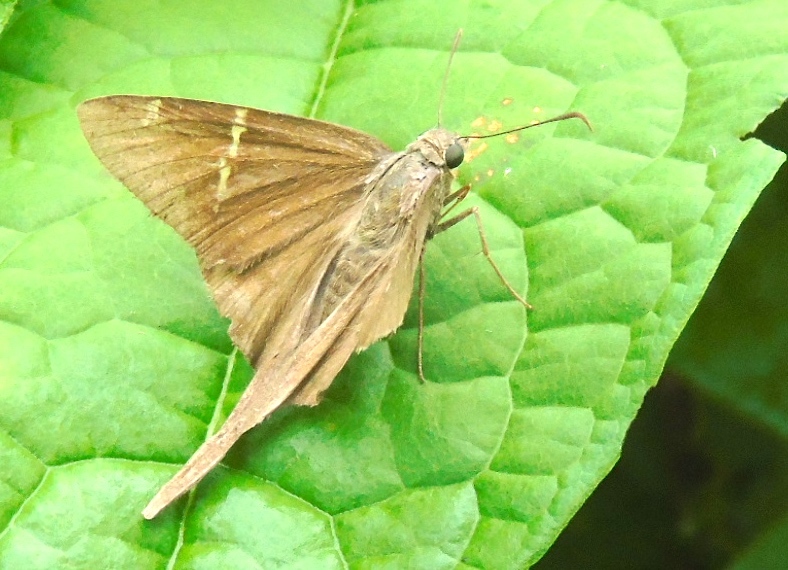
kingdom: Animalia
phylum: Arthropoda
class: Insecta
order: Lepidoptera
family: Hesperiidae
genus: Urbanus
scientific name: Urbanus procne
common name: Brown longtail
